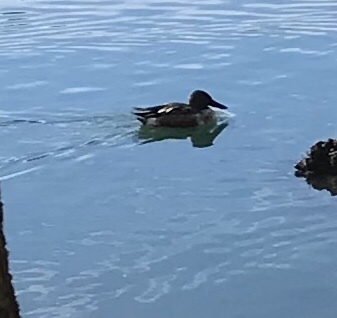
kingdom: Animalia
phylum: Chordata
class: Aves
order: Anseriformes
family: Anatidae
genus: Spatula
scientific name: Spatula clypeata
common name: Northern shoveler
